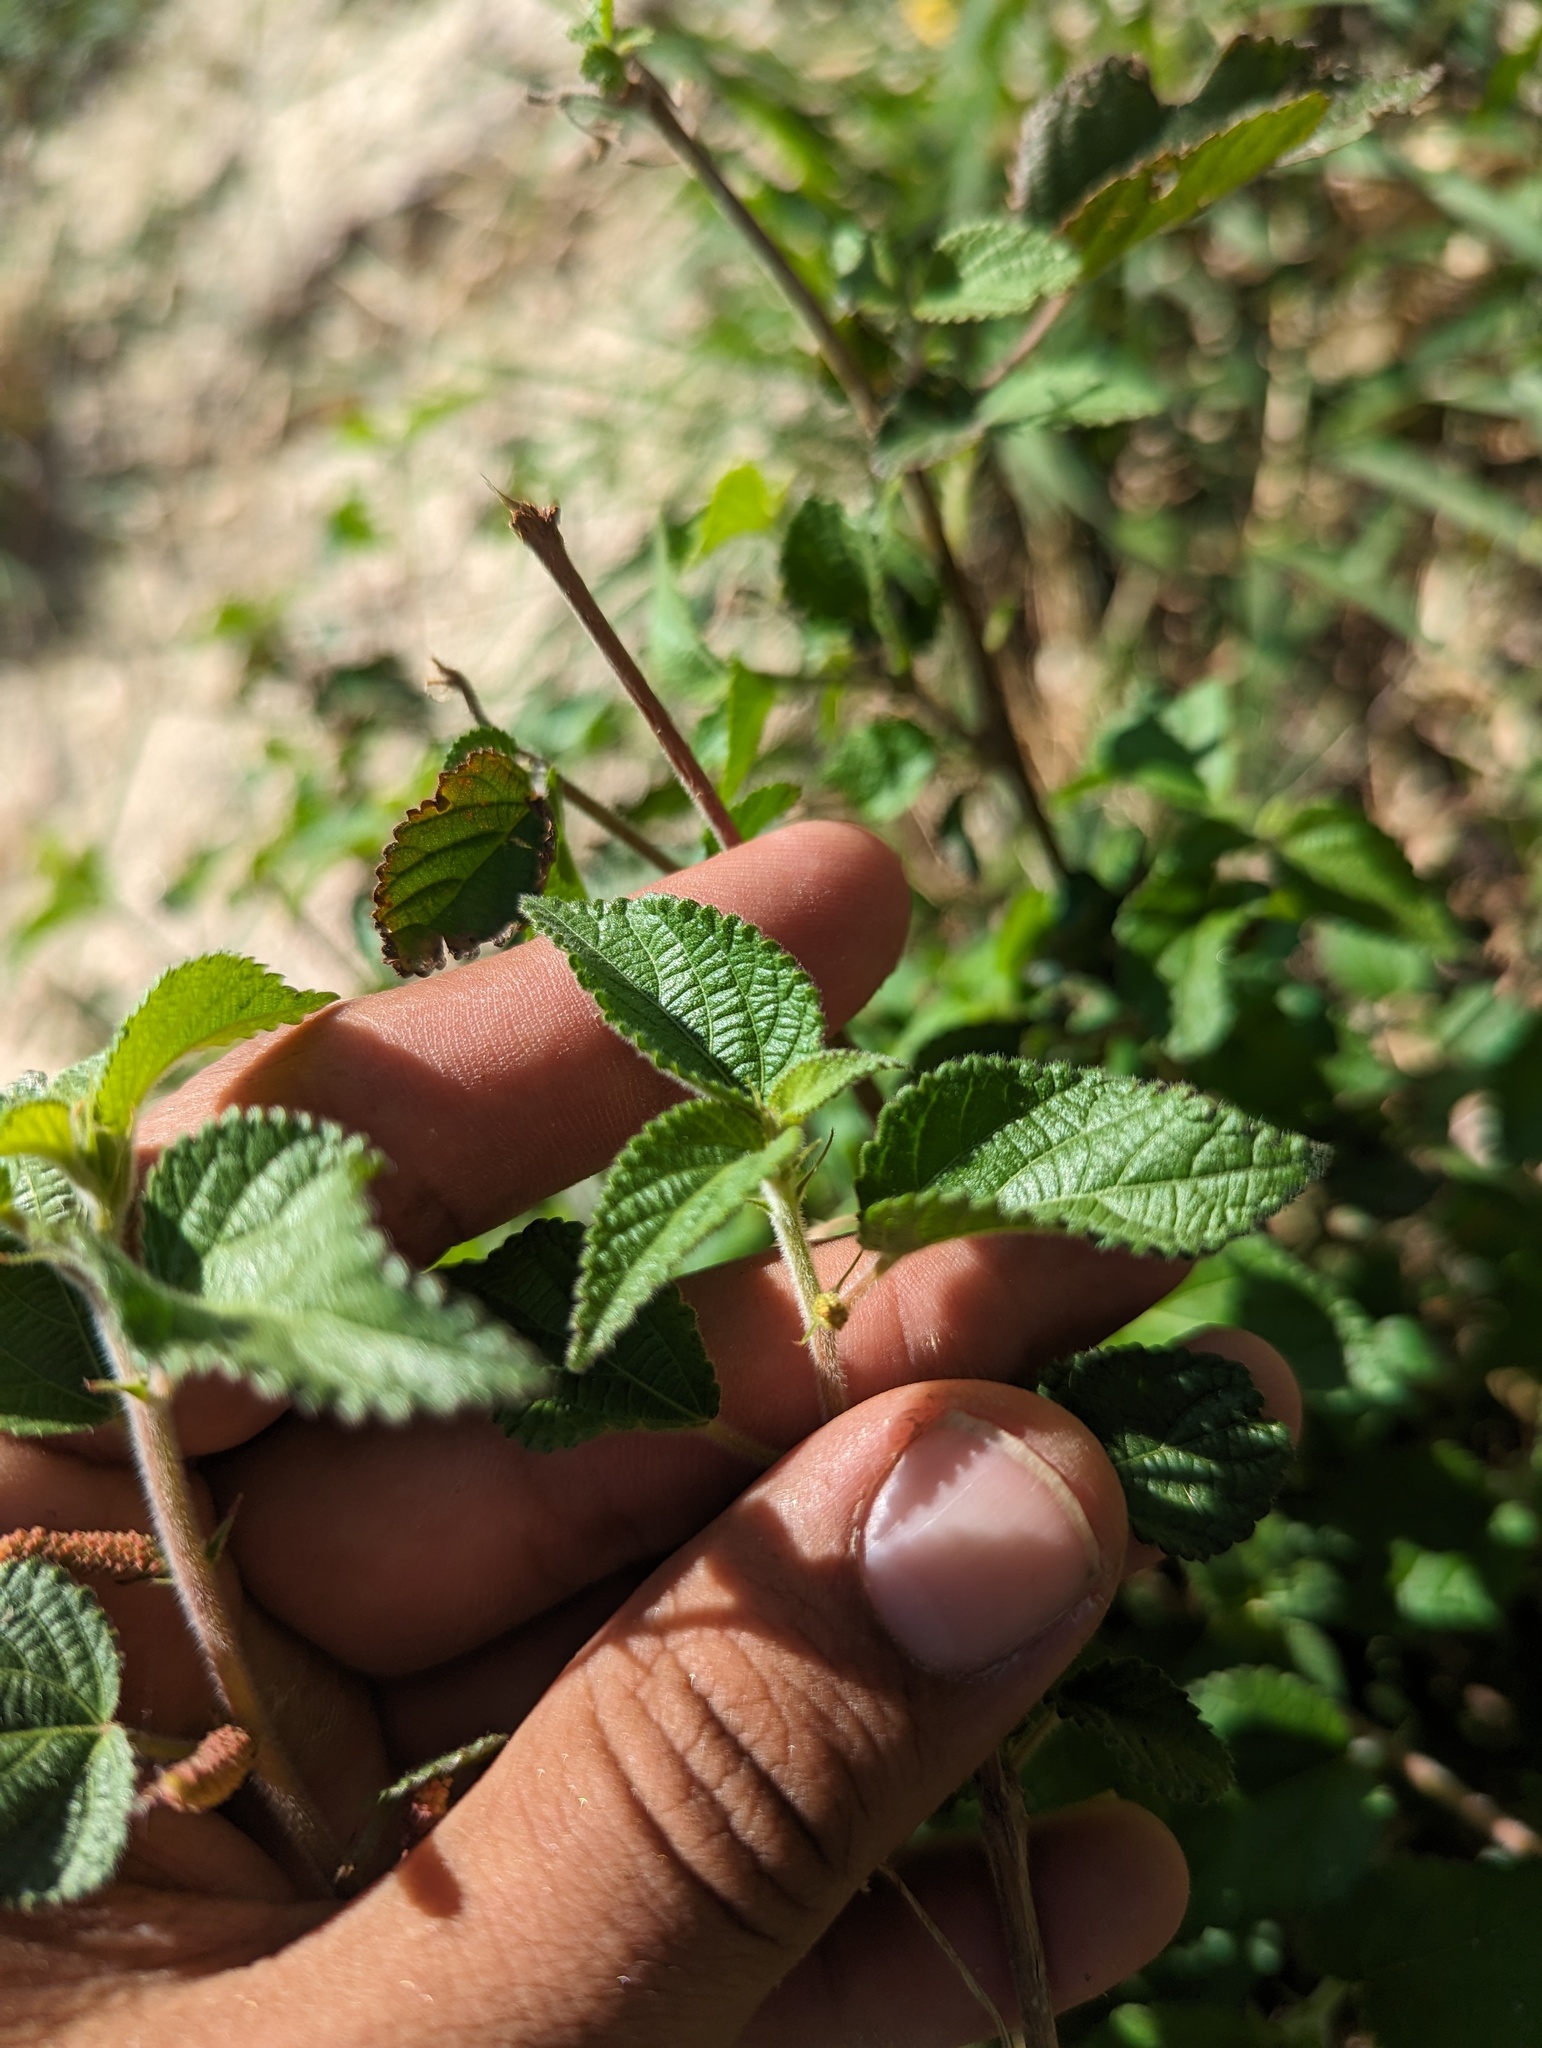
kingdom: Plantae
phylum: Tracheophyta
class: Magnoliopsida
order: Malpighiales
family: Euphorbiaceae
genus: Acalypha
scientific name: Acalypha californica
